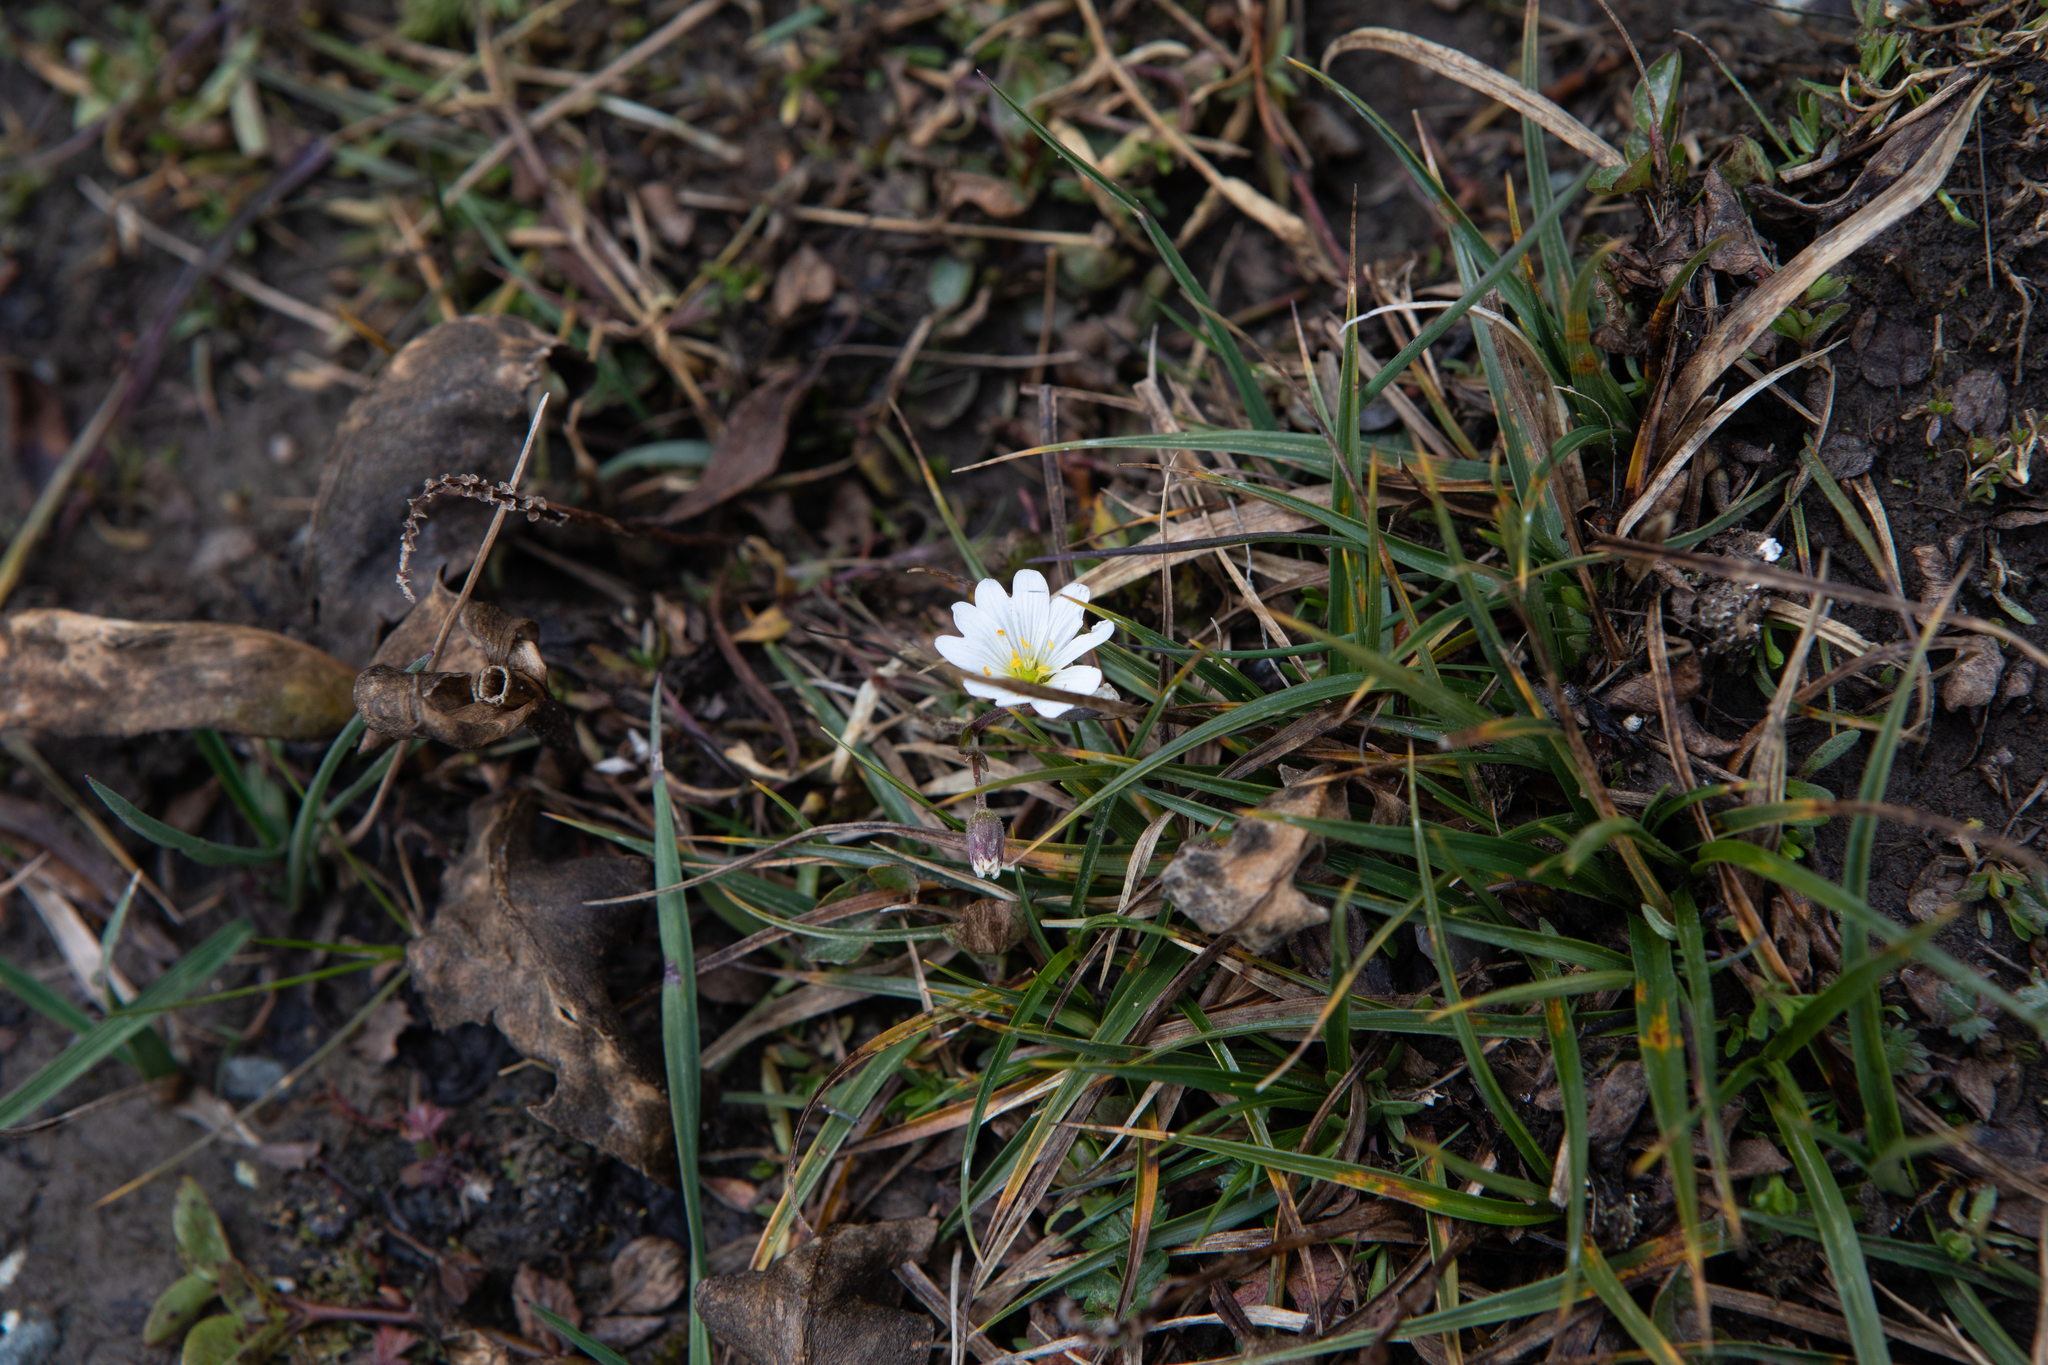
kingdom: Plantae
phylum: Tracheophyta
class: Magnoliopsida
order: Caryophyllales
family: Caryophyllaceae
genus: Dichodon
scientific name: Dichodon cerastoides
